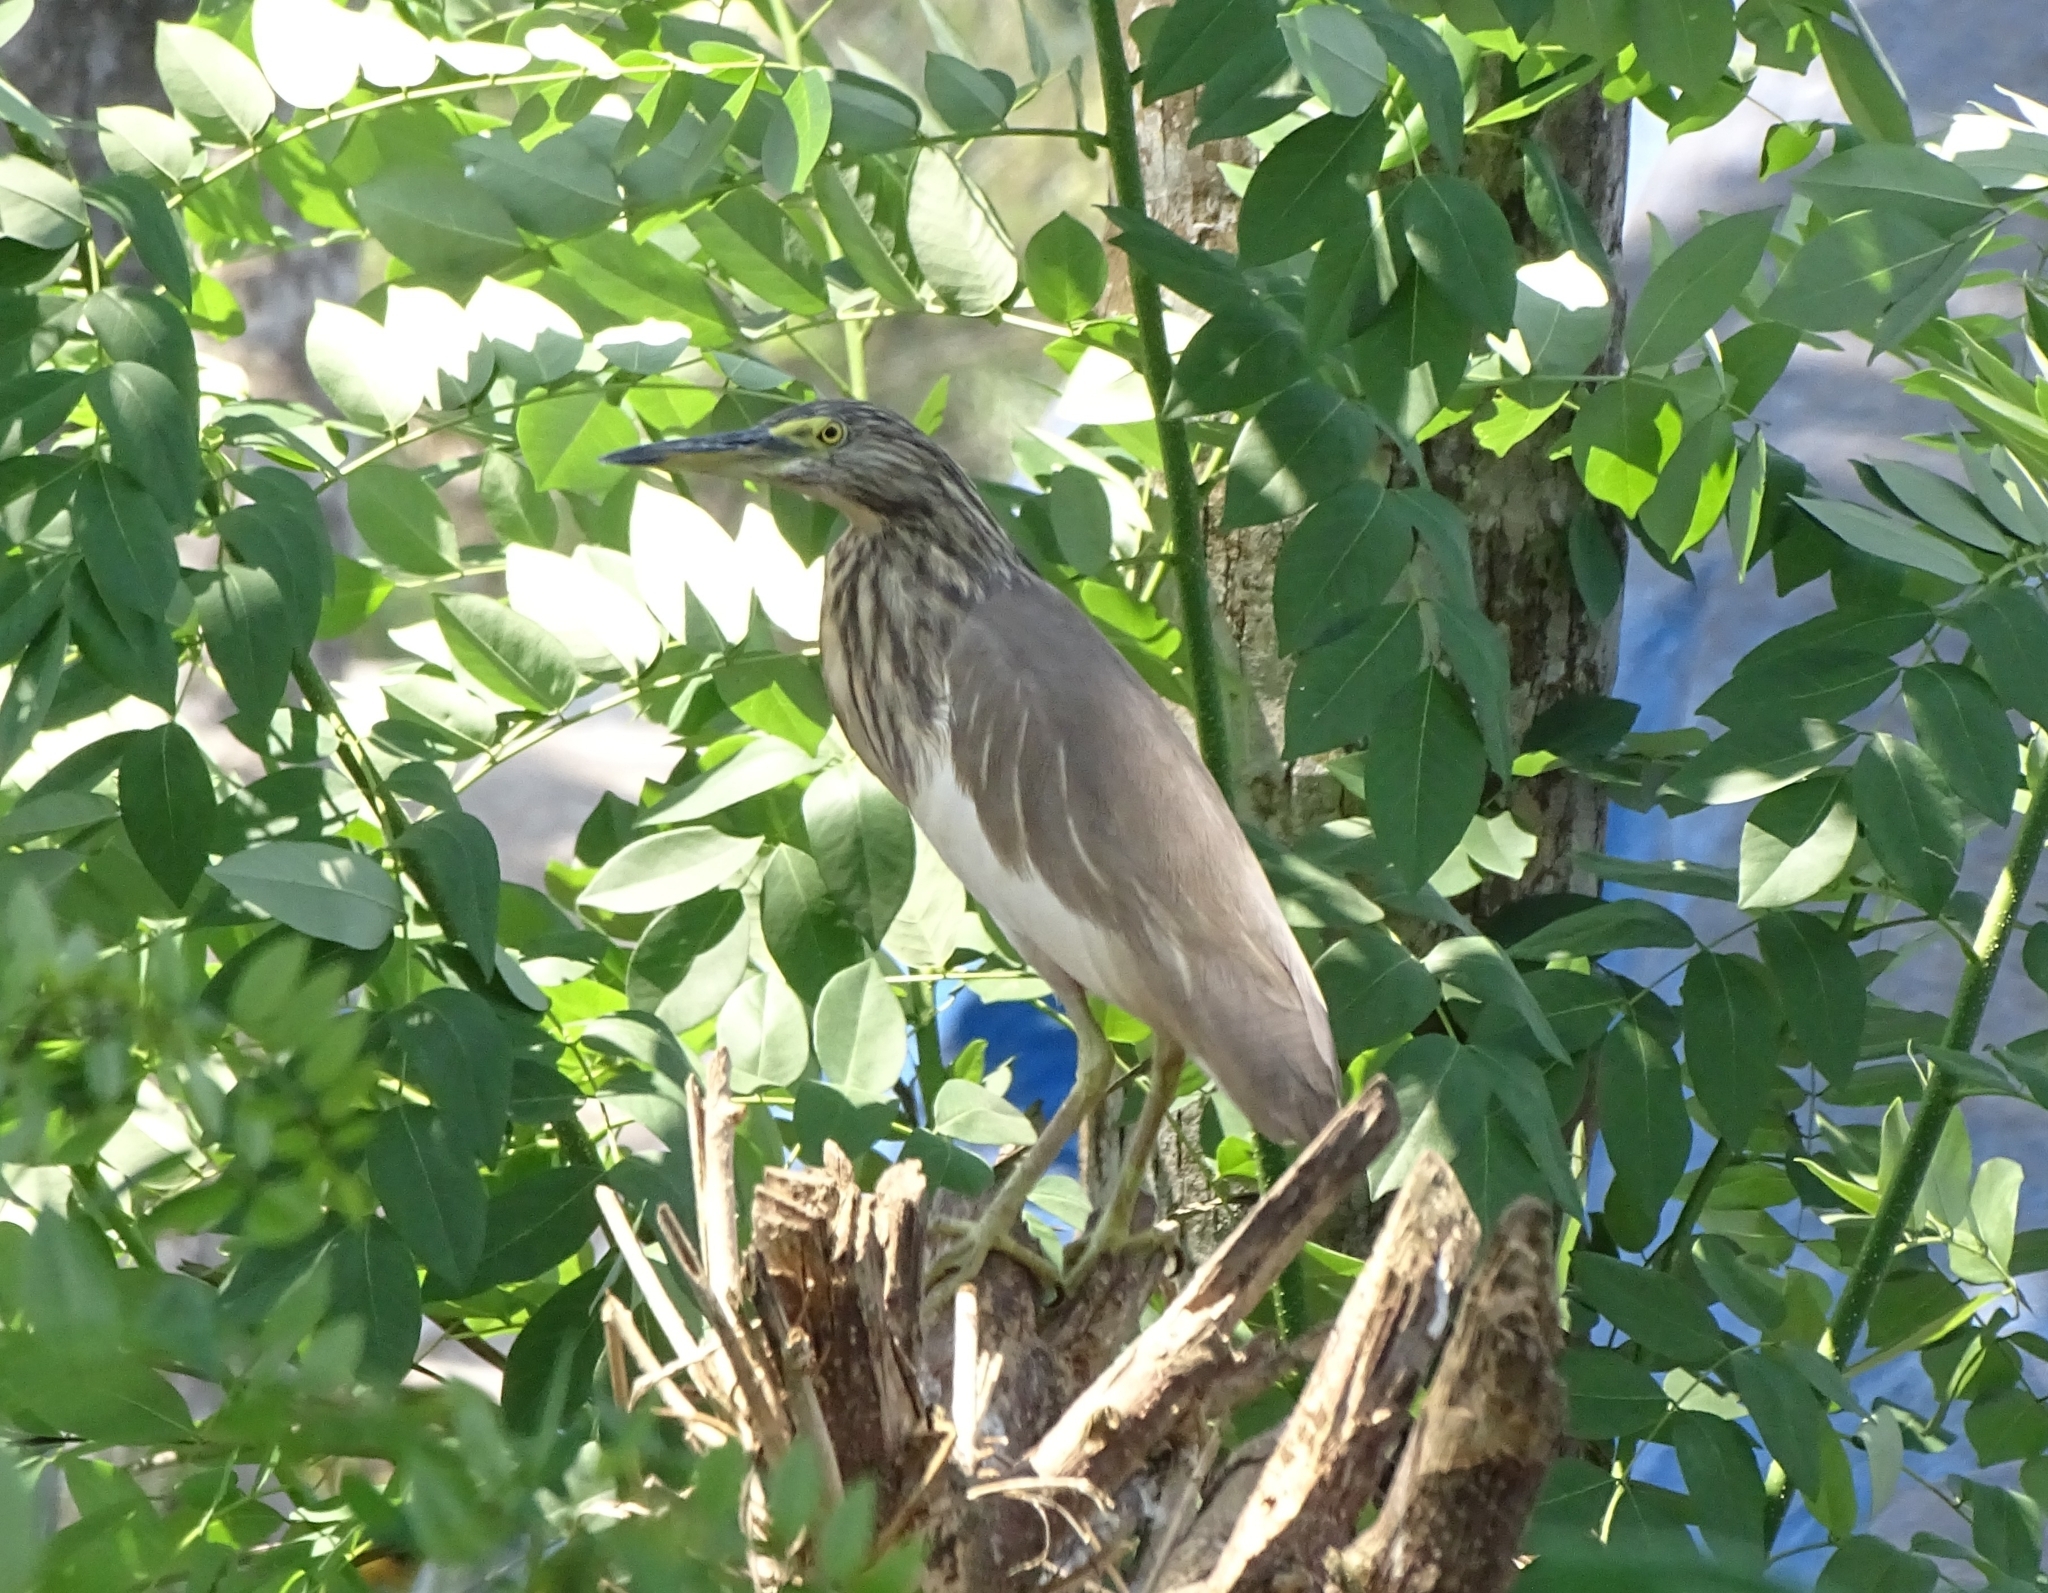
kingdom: Animalia
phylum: Chordata
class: Aves
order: Pelecaniformes
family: Ardeidae
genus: Ardeola
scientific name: Ardeola grayii
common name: Indian pond heron
